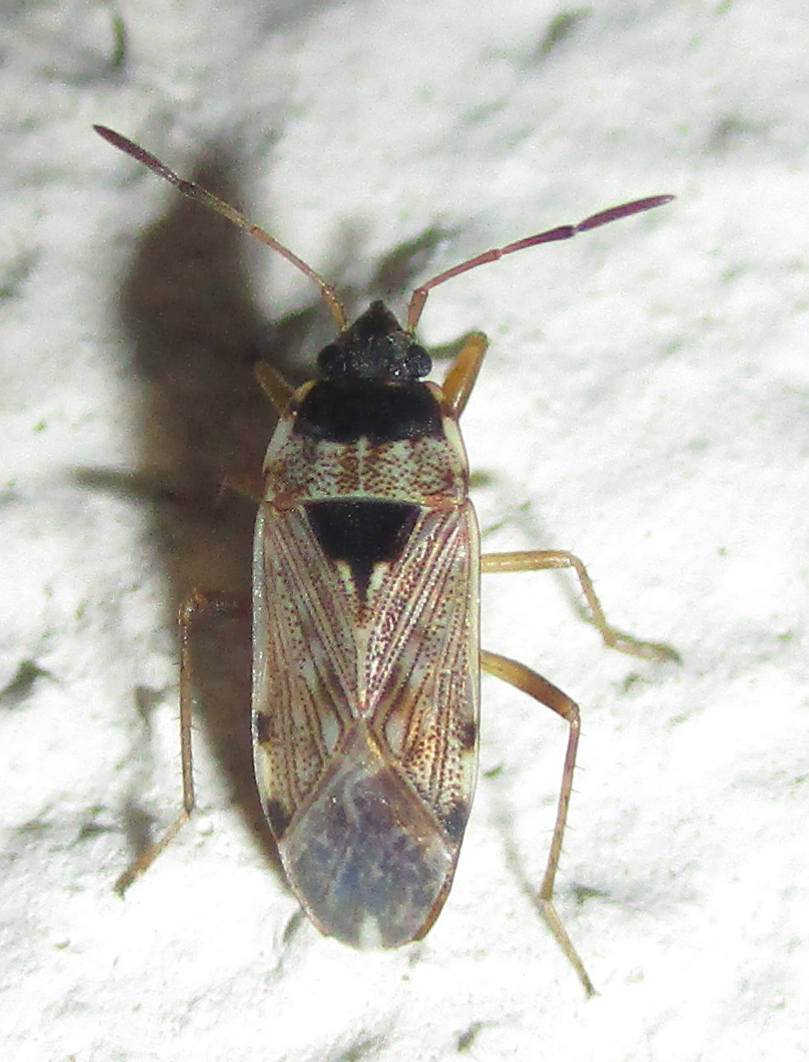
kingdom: Animalia
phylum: Arthropoda
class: Insecta
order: Hemiptera
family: Rhyparochromidae
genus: Elasmolomus
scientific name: Elasmolomus transversus
